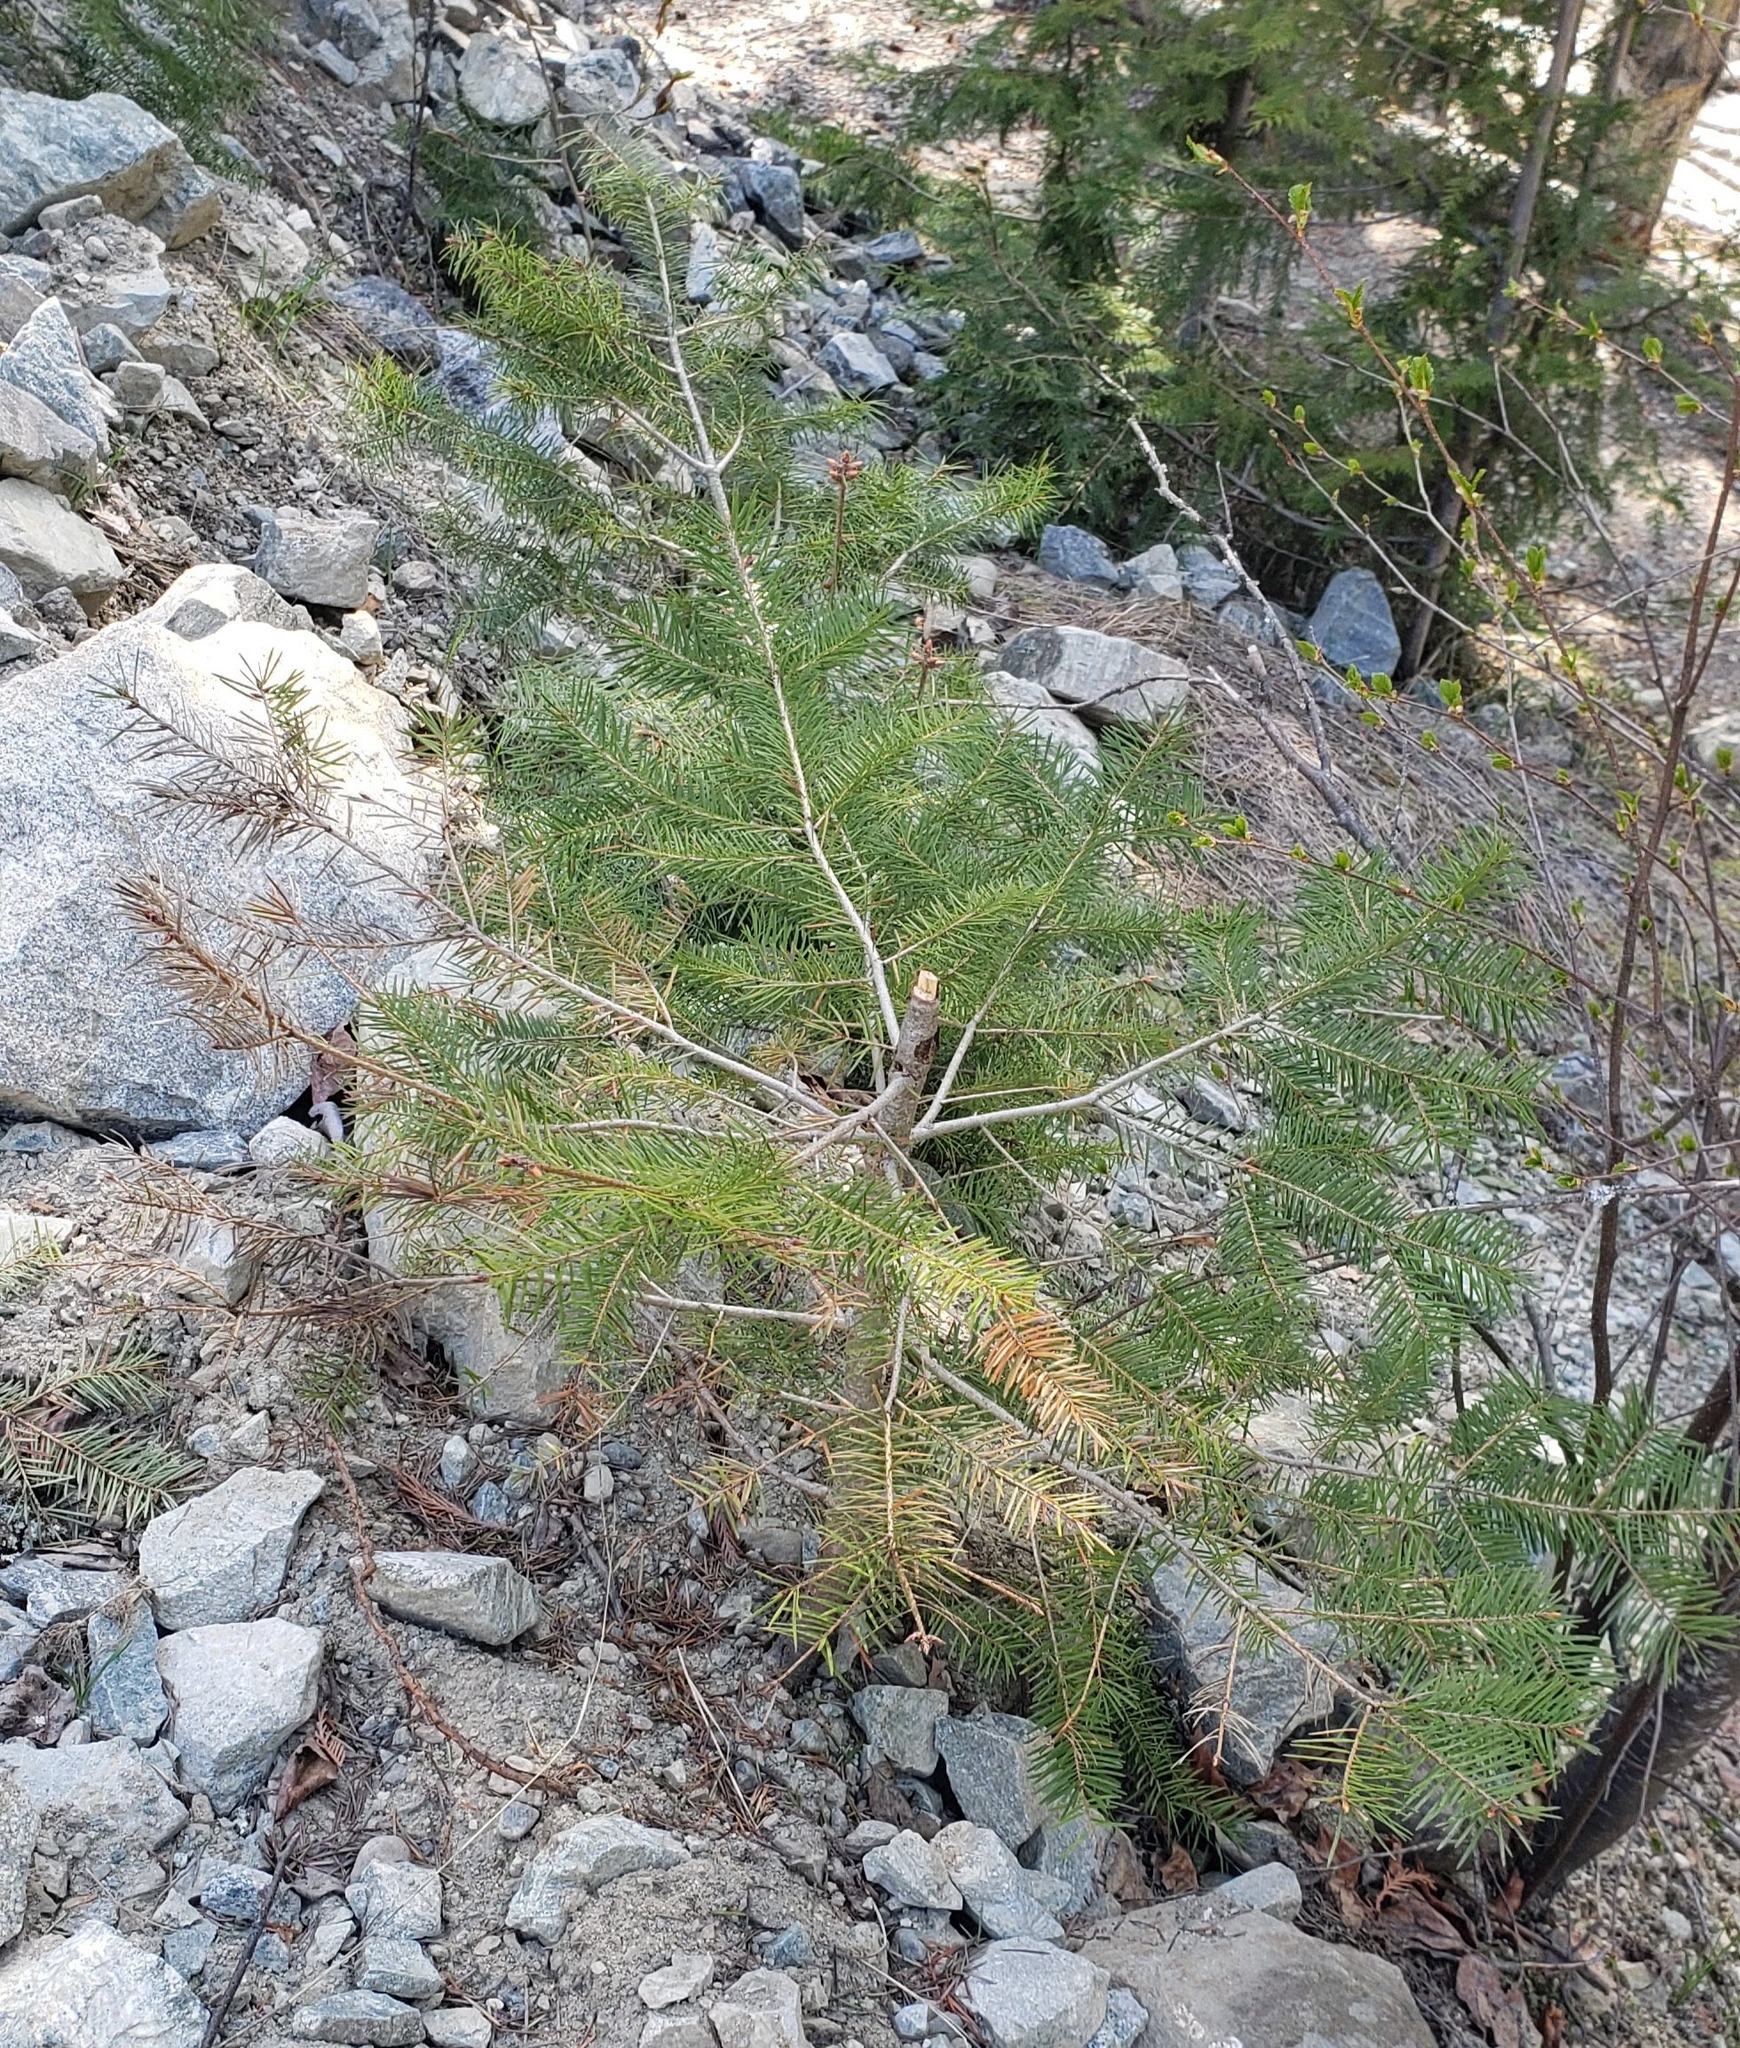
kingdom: Plantae
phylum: Tracheophyta
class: Pinopsida
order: Pinales
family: Pinaceae
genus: Pseudotsuga
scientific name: Pseudotsuga menziesii
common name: Douglas fir
